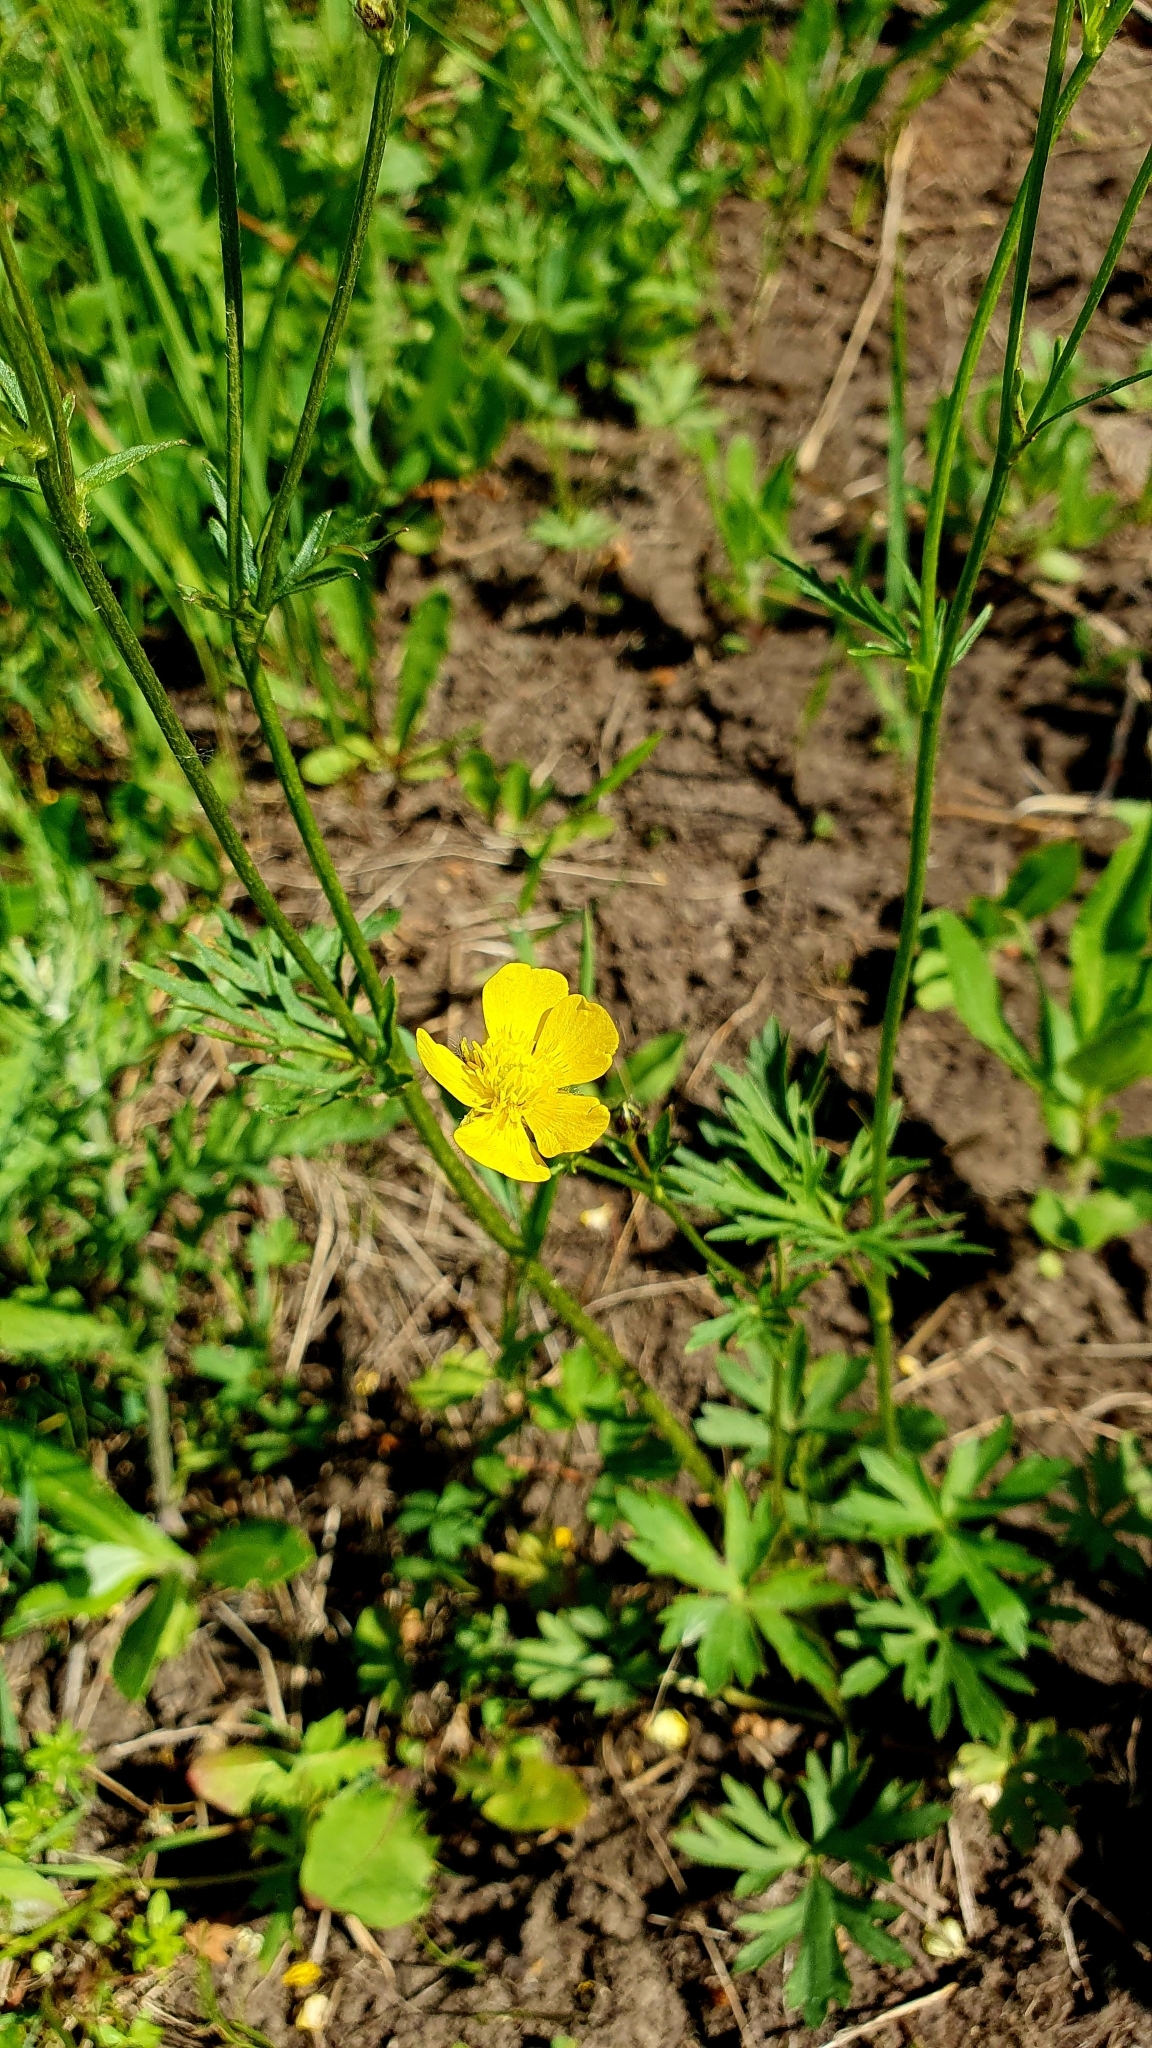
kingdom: Plantae
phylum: Tracheophyta
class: Magnoliopsida
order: Ranunculales
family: Ranunculaceae
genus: Ranunculus
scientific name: Ranunculus polyanthemos
